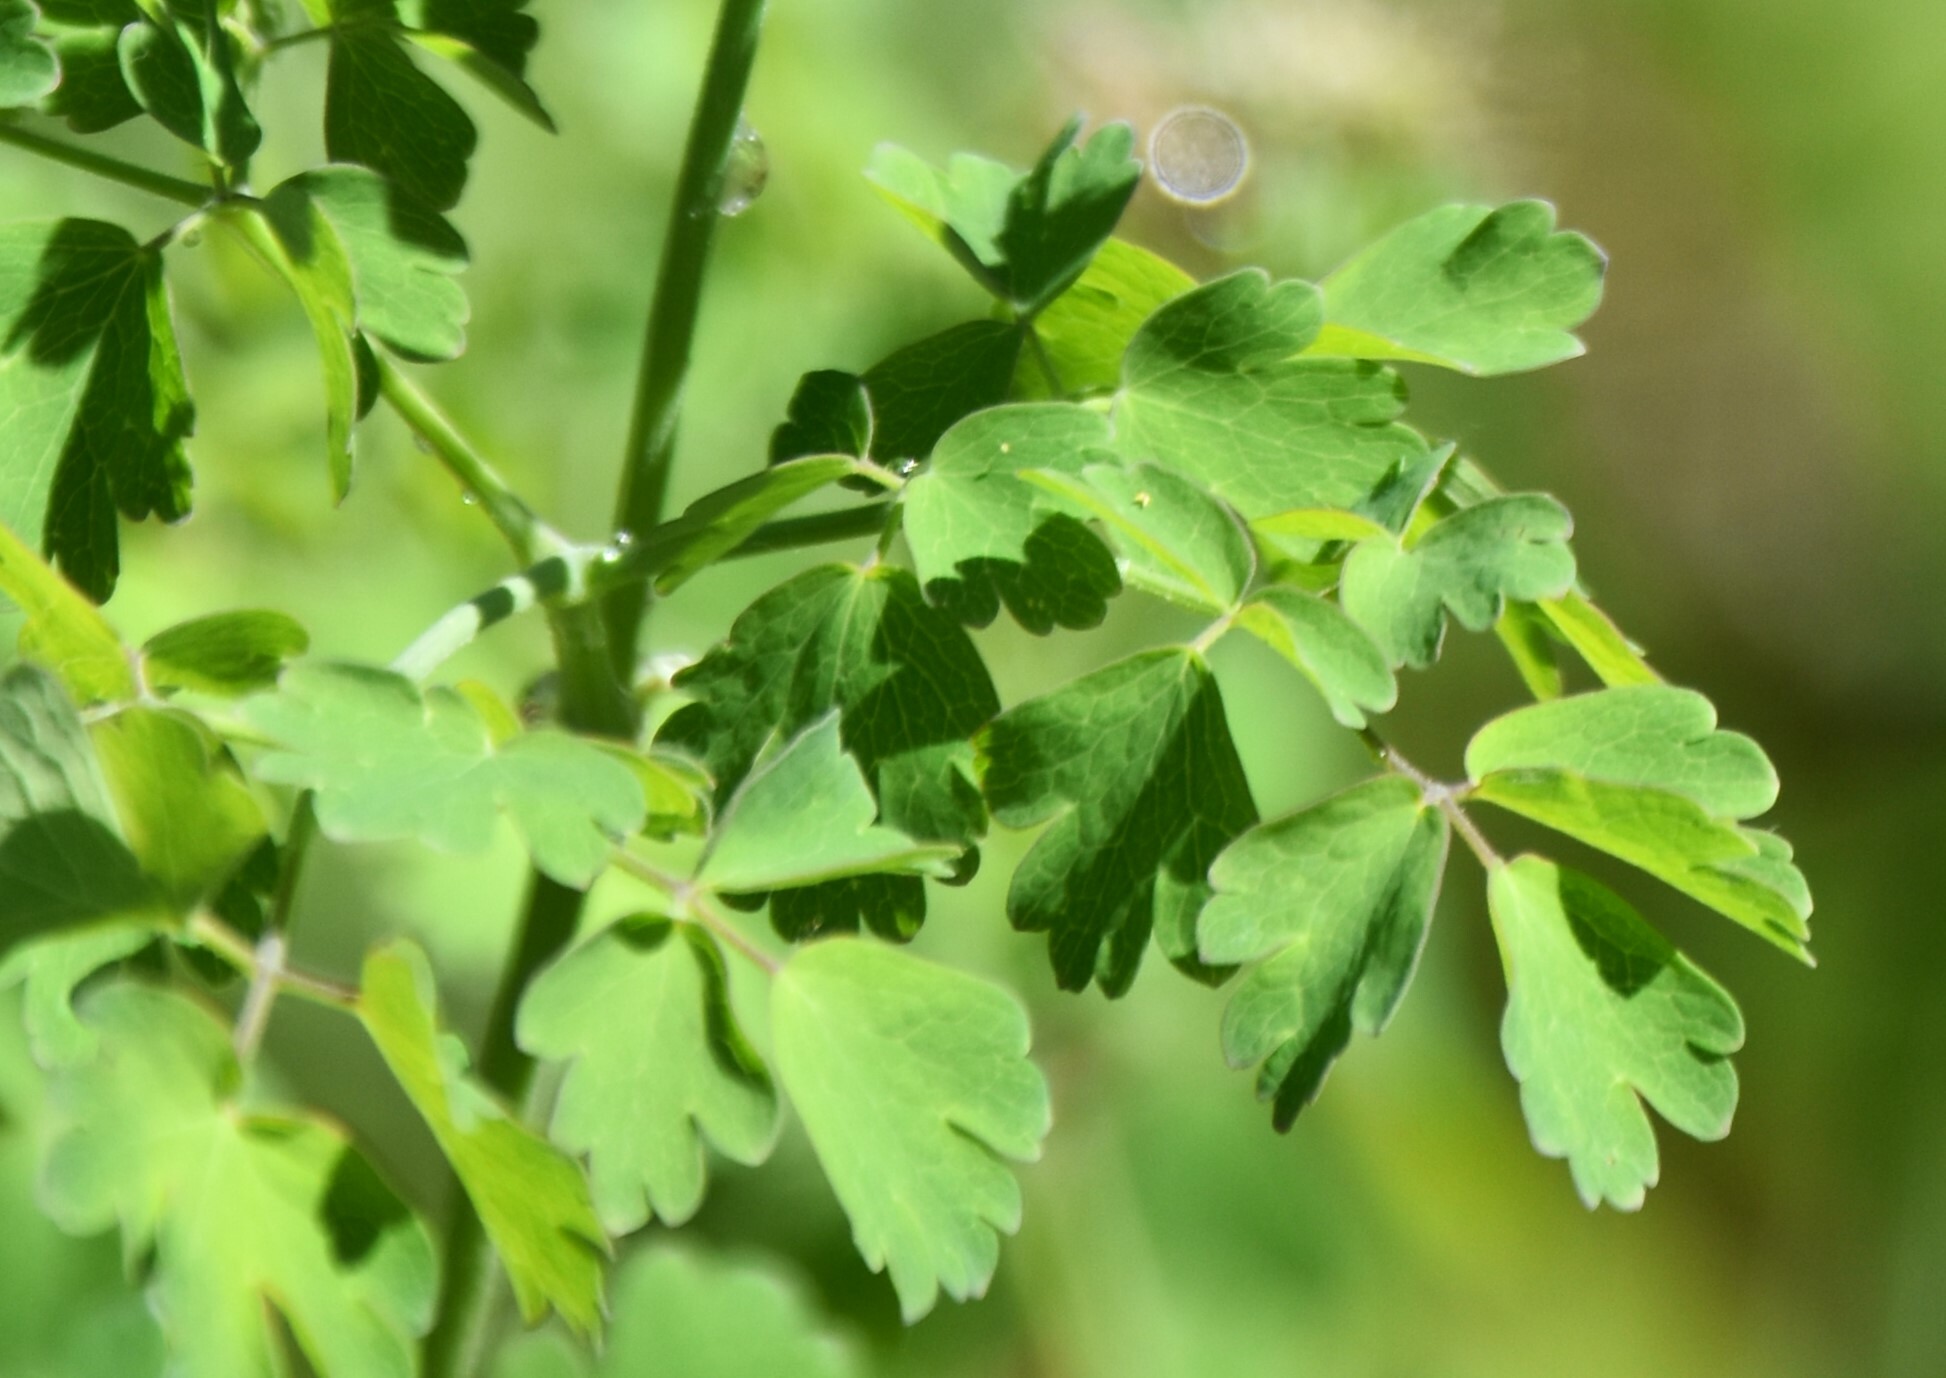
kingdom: Plantae
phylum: Tracheophyta
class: Magnoliopsida
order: Ranunculales
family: Ranunculaceae
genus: Thalictrum
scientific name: Thalictrum occidentale
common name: Western meadow-rue
